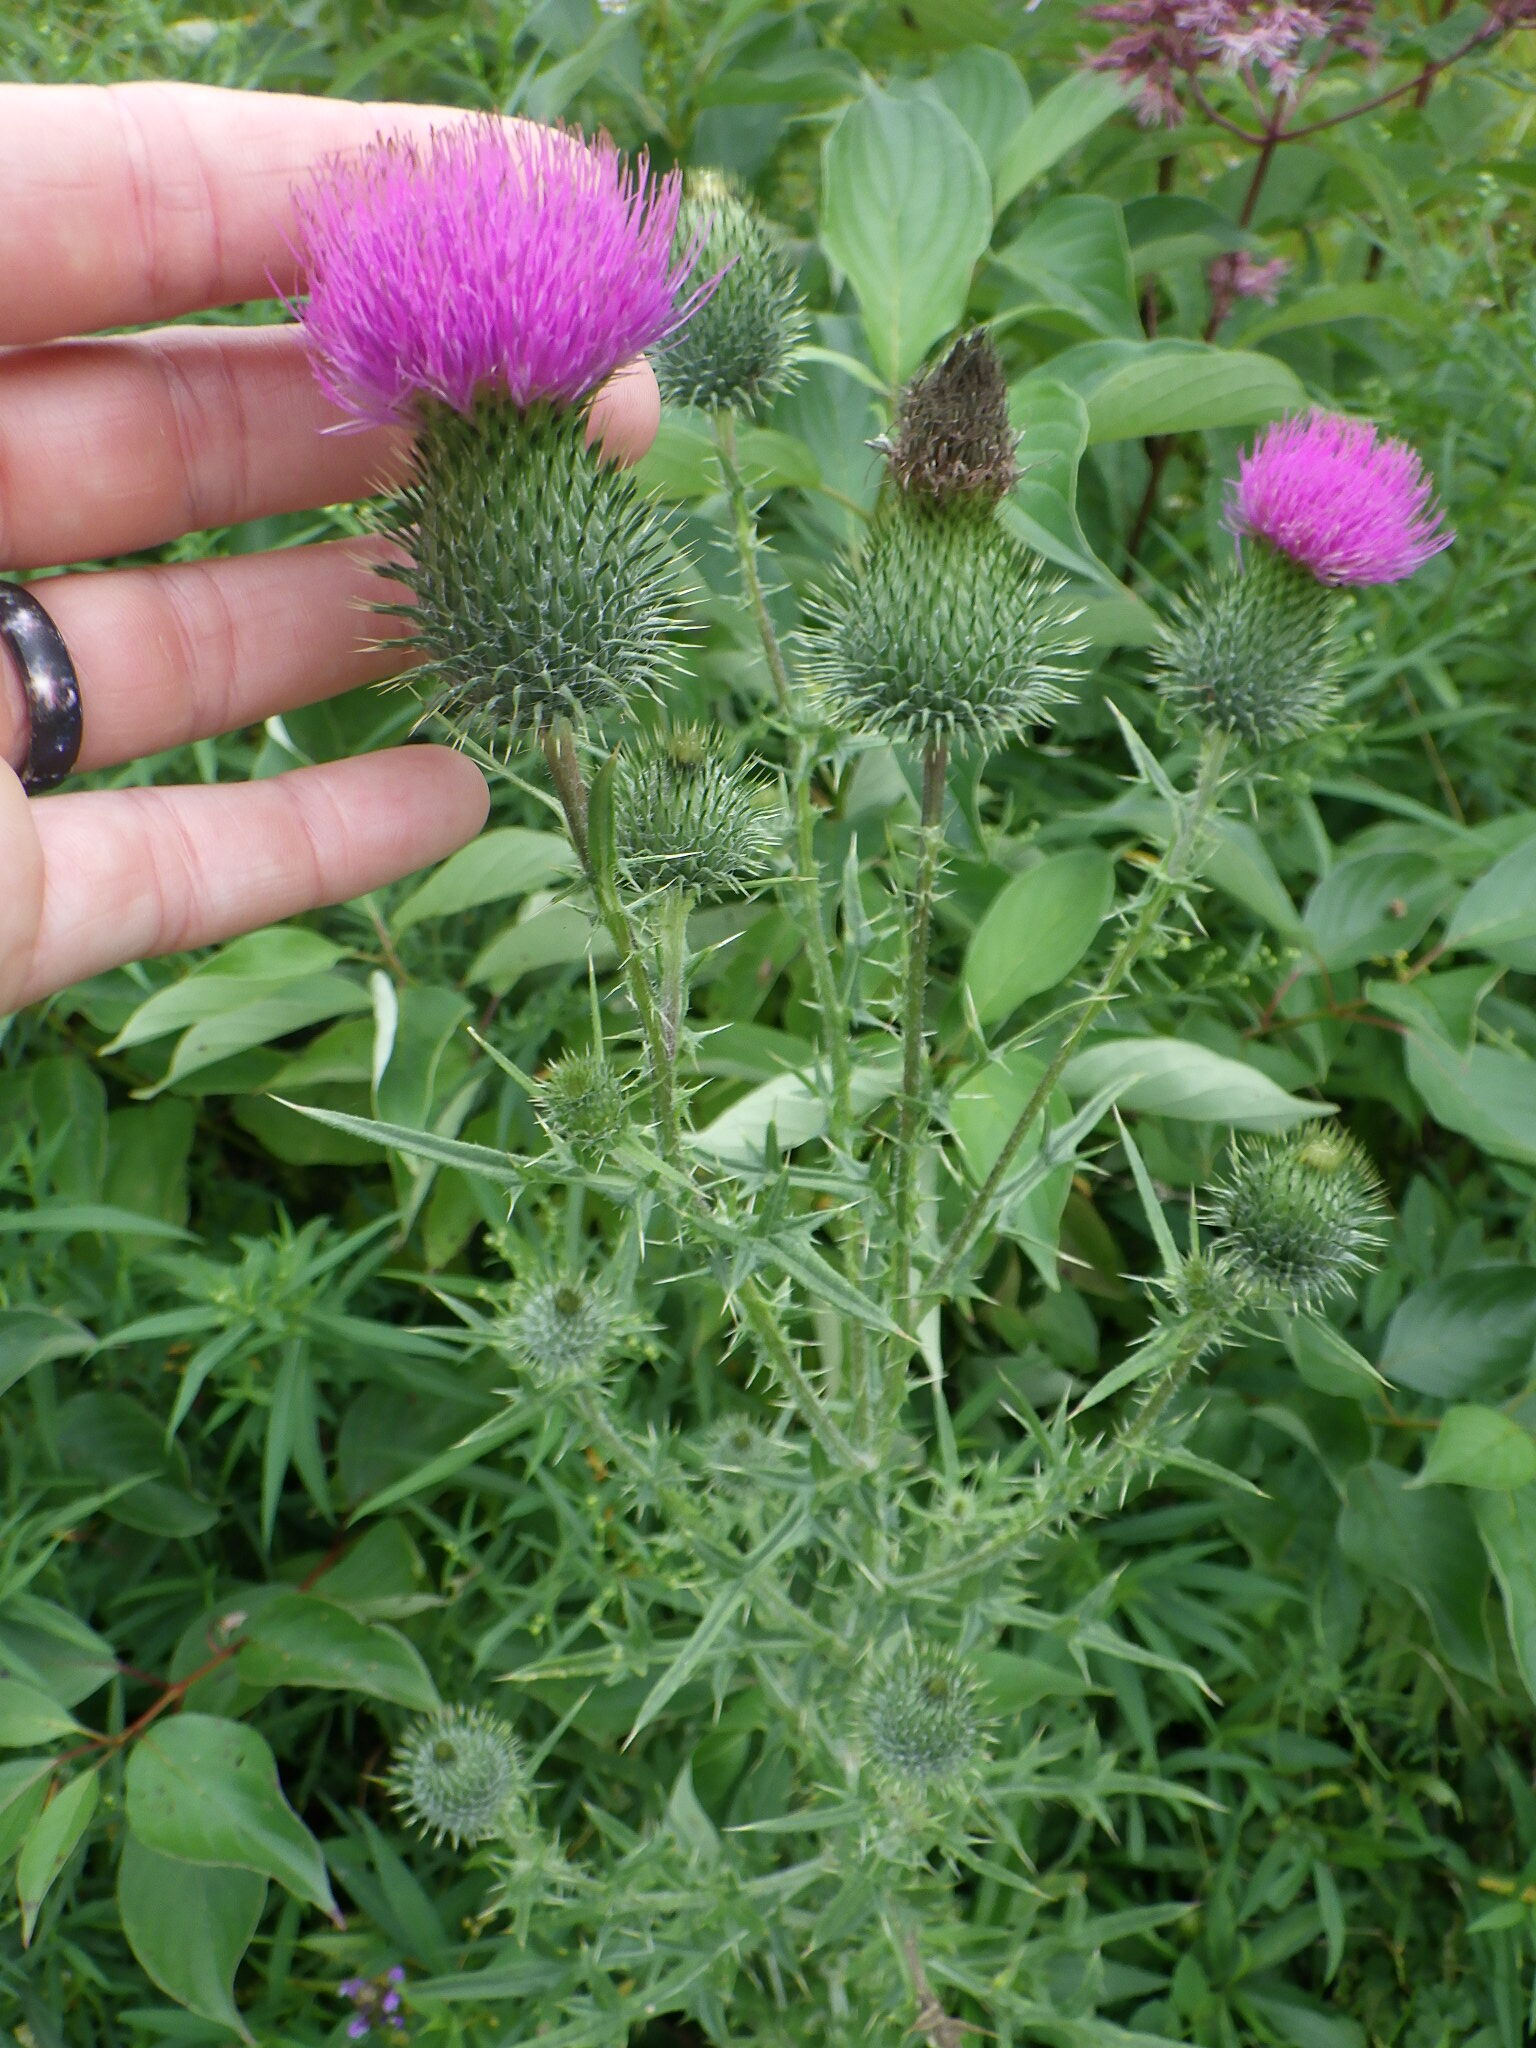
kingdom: Plantae
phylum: Tracheophyta
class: Magnoliopsida
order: Asterales
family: Asteraceae
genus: Cirsium
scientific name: Cirsium vulgare
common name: Bull thistle
